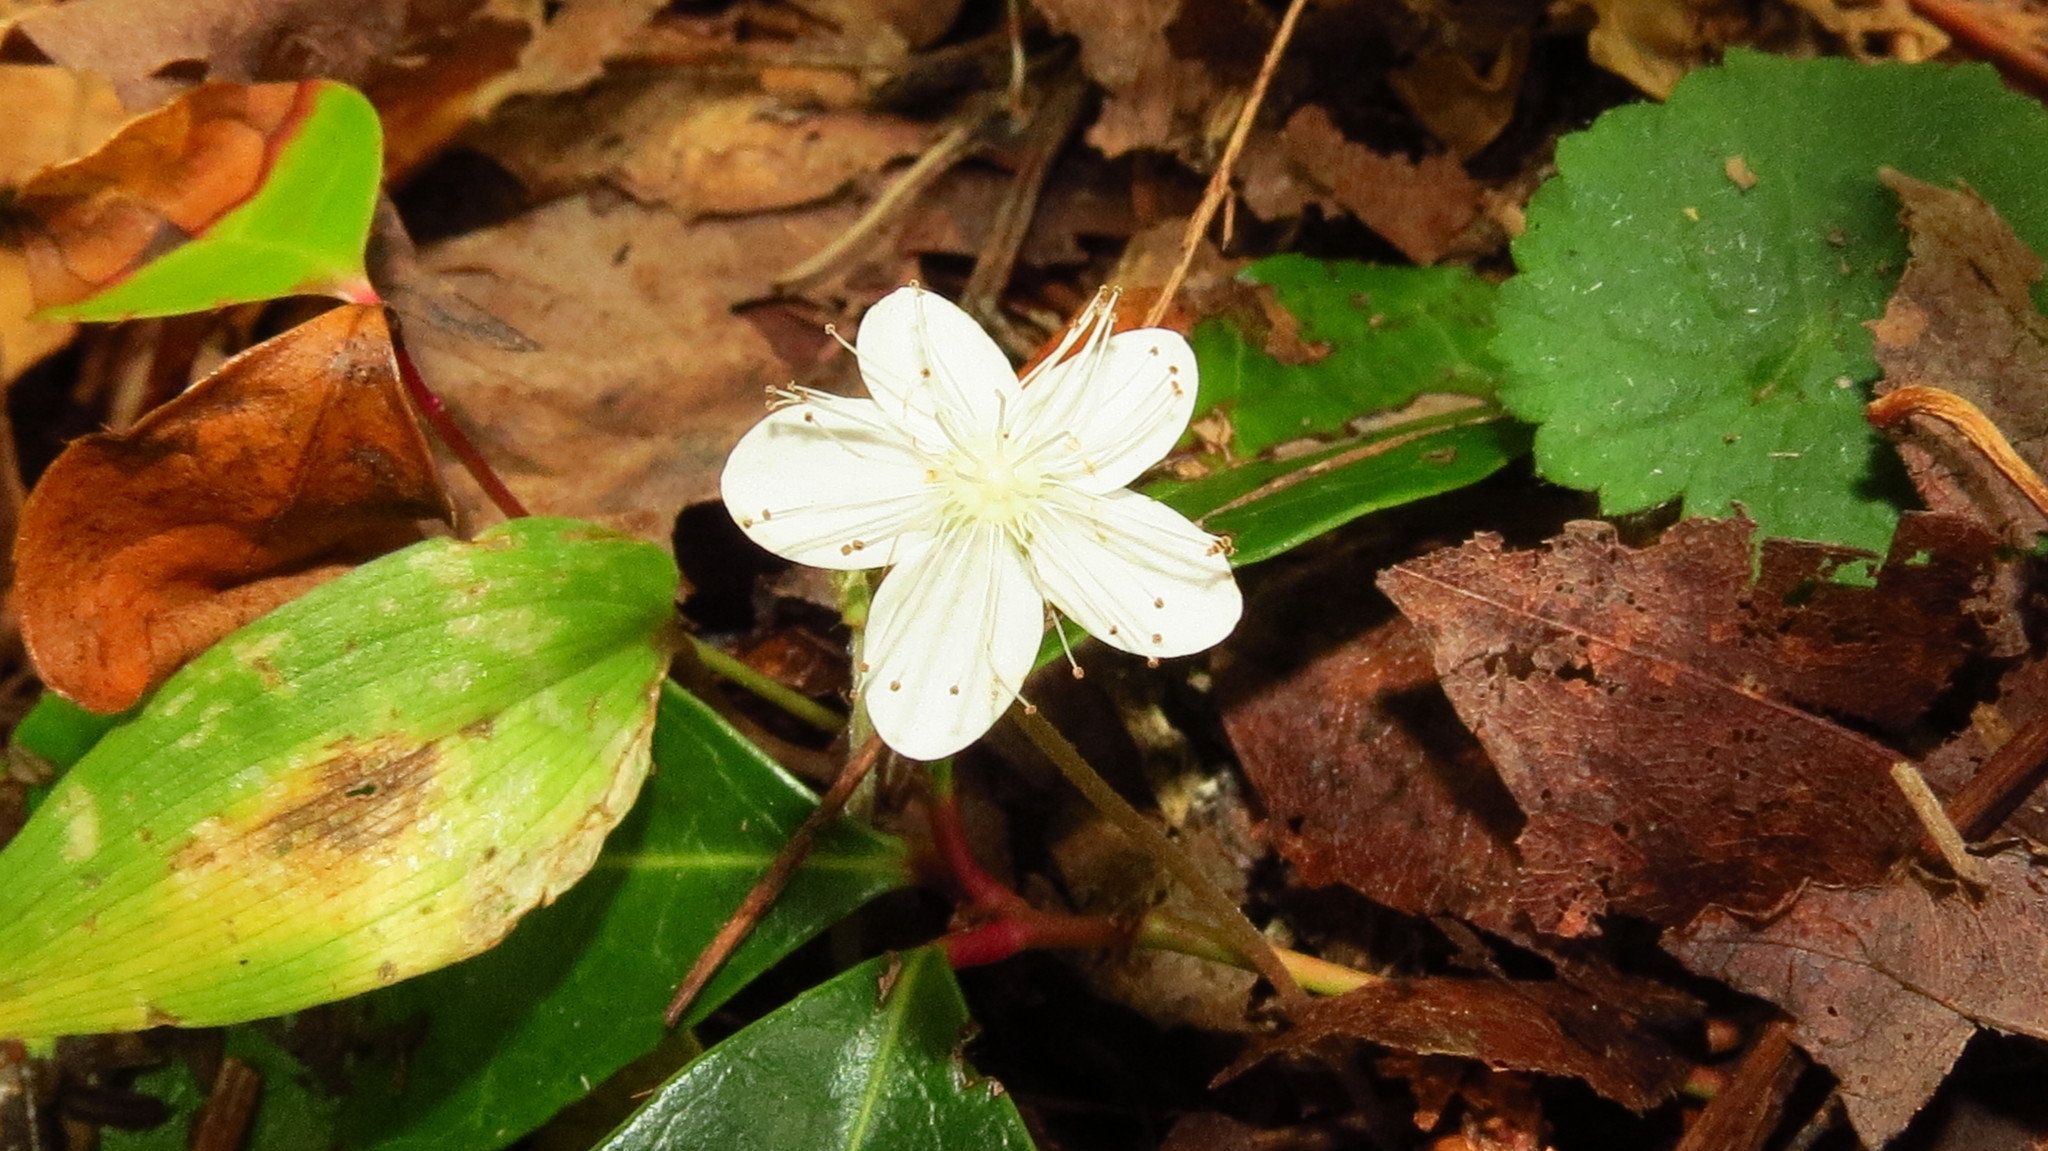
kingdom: Plantae
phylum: Tracheophyta
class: Magnoliopsida
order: Rosales
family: Rosaceae
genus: Dalibarda
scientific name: Dalibarda repens
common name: Dewdrop
